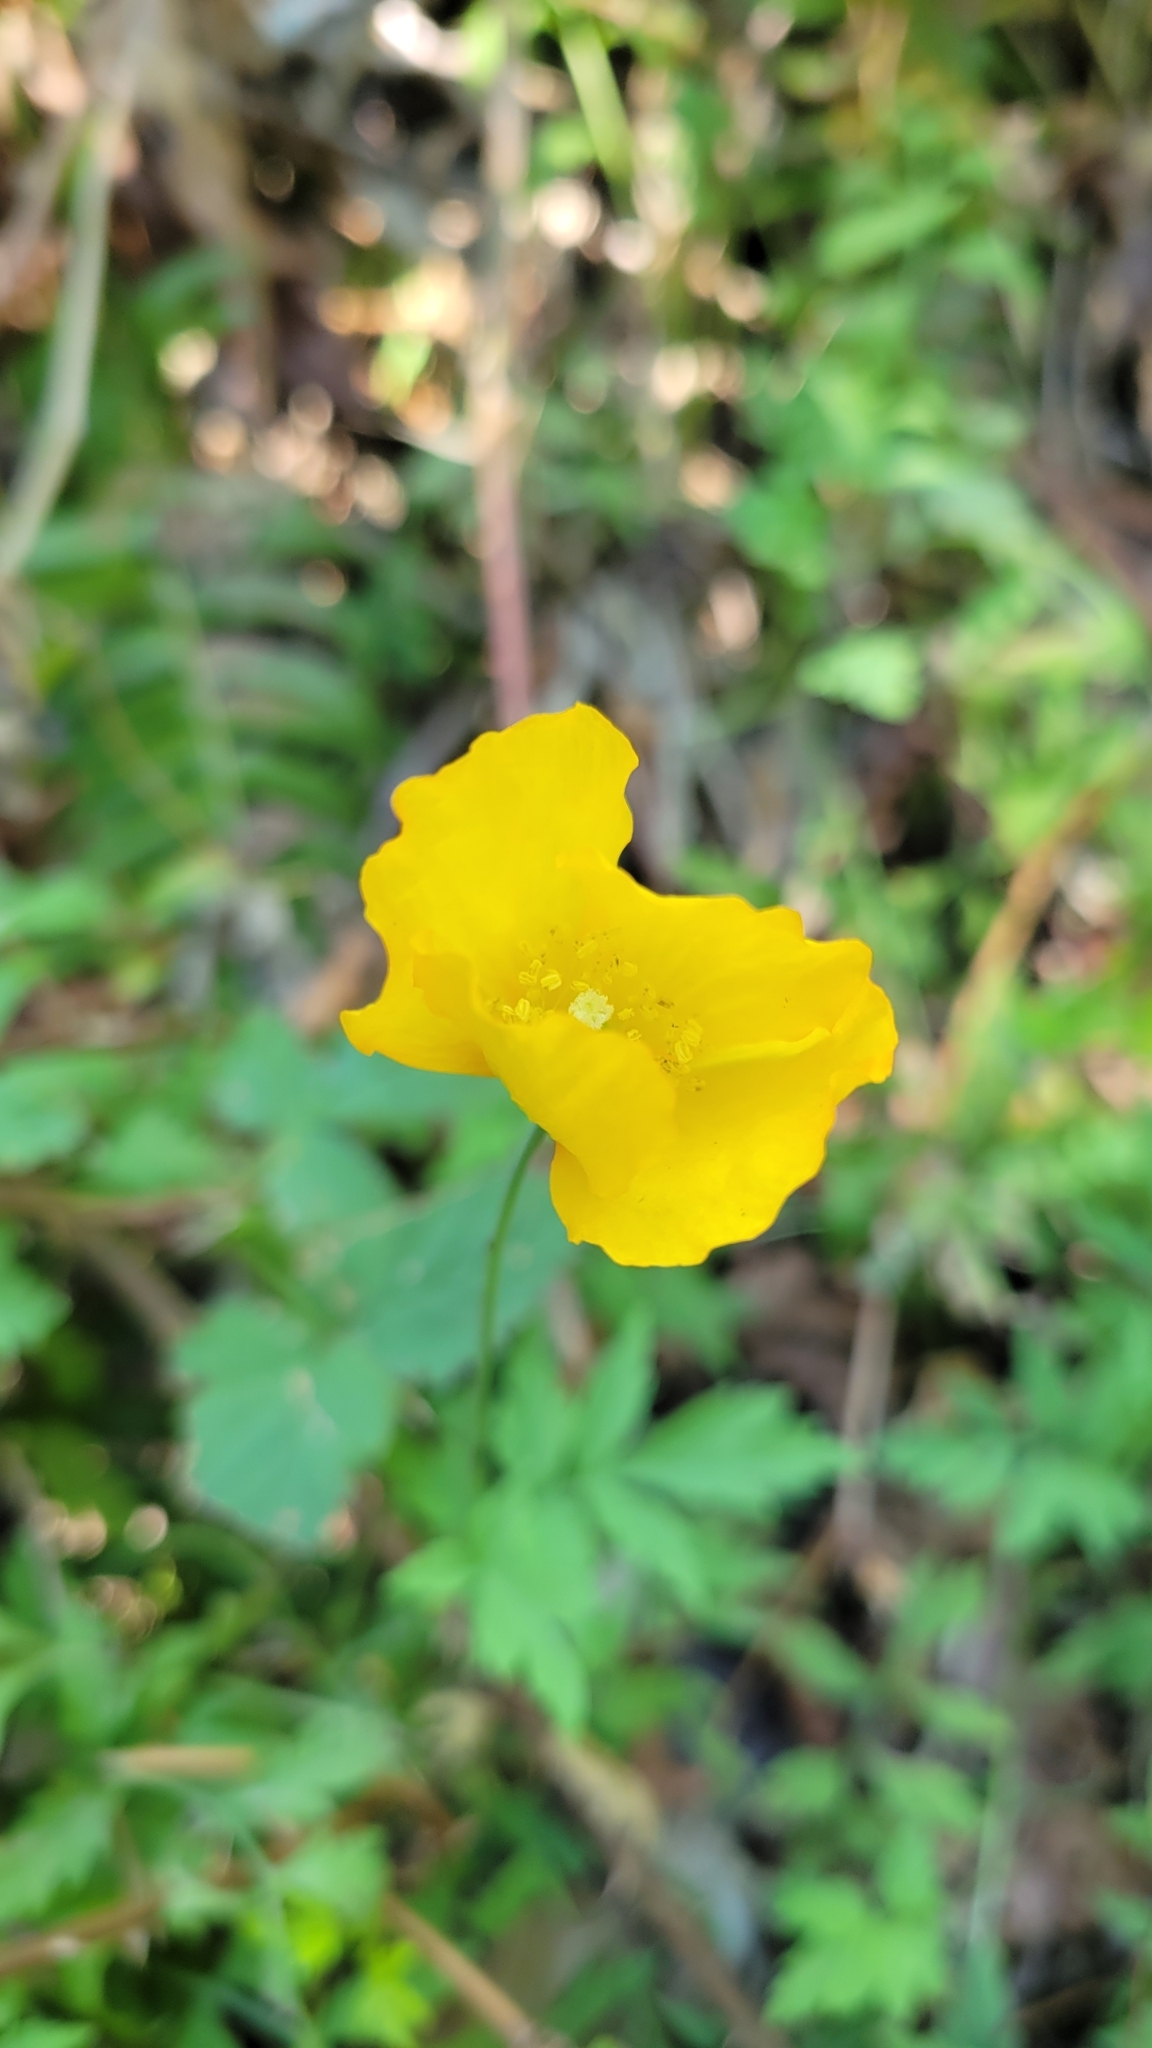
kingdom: Plantae
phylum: Tracheophyta
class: Magnoliopsida
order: Ranunculales
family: Papaveraceae
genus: Papaver
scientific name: Papaver cambricum
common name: Poppy
